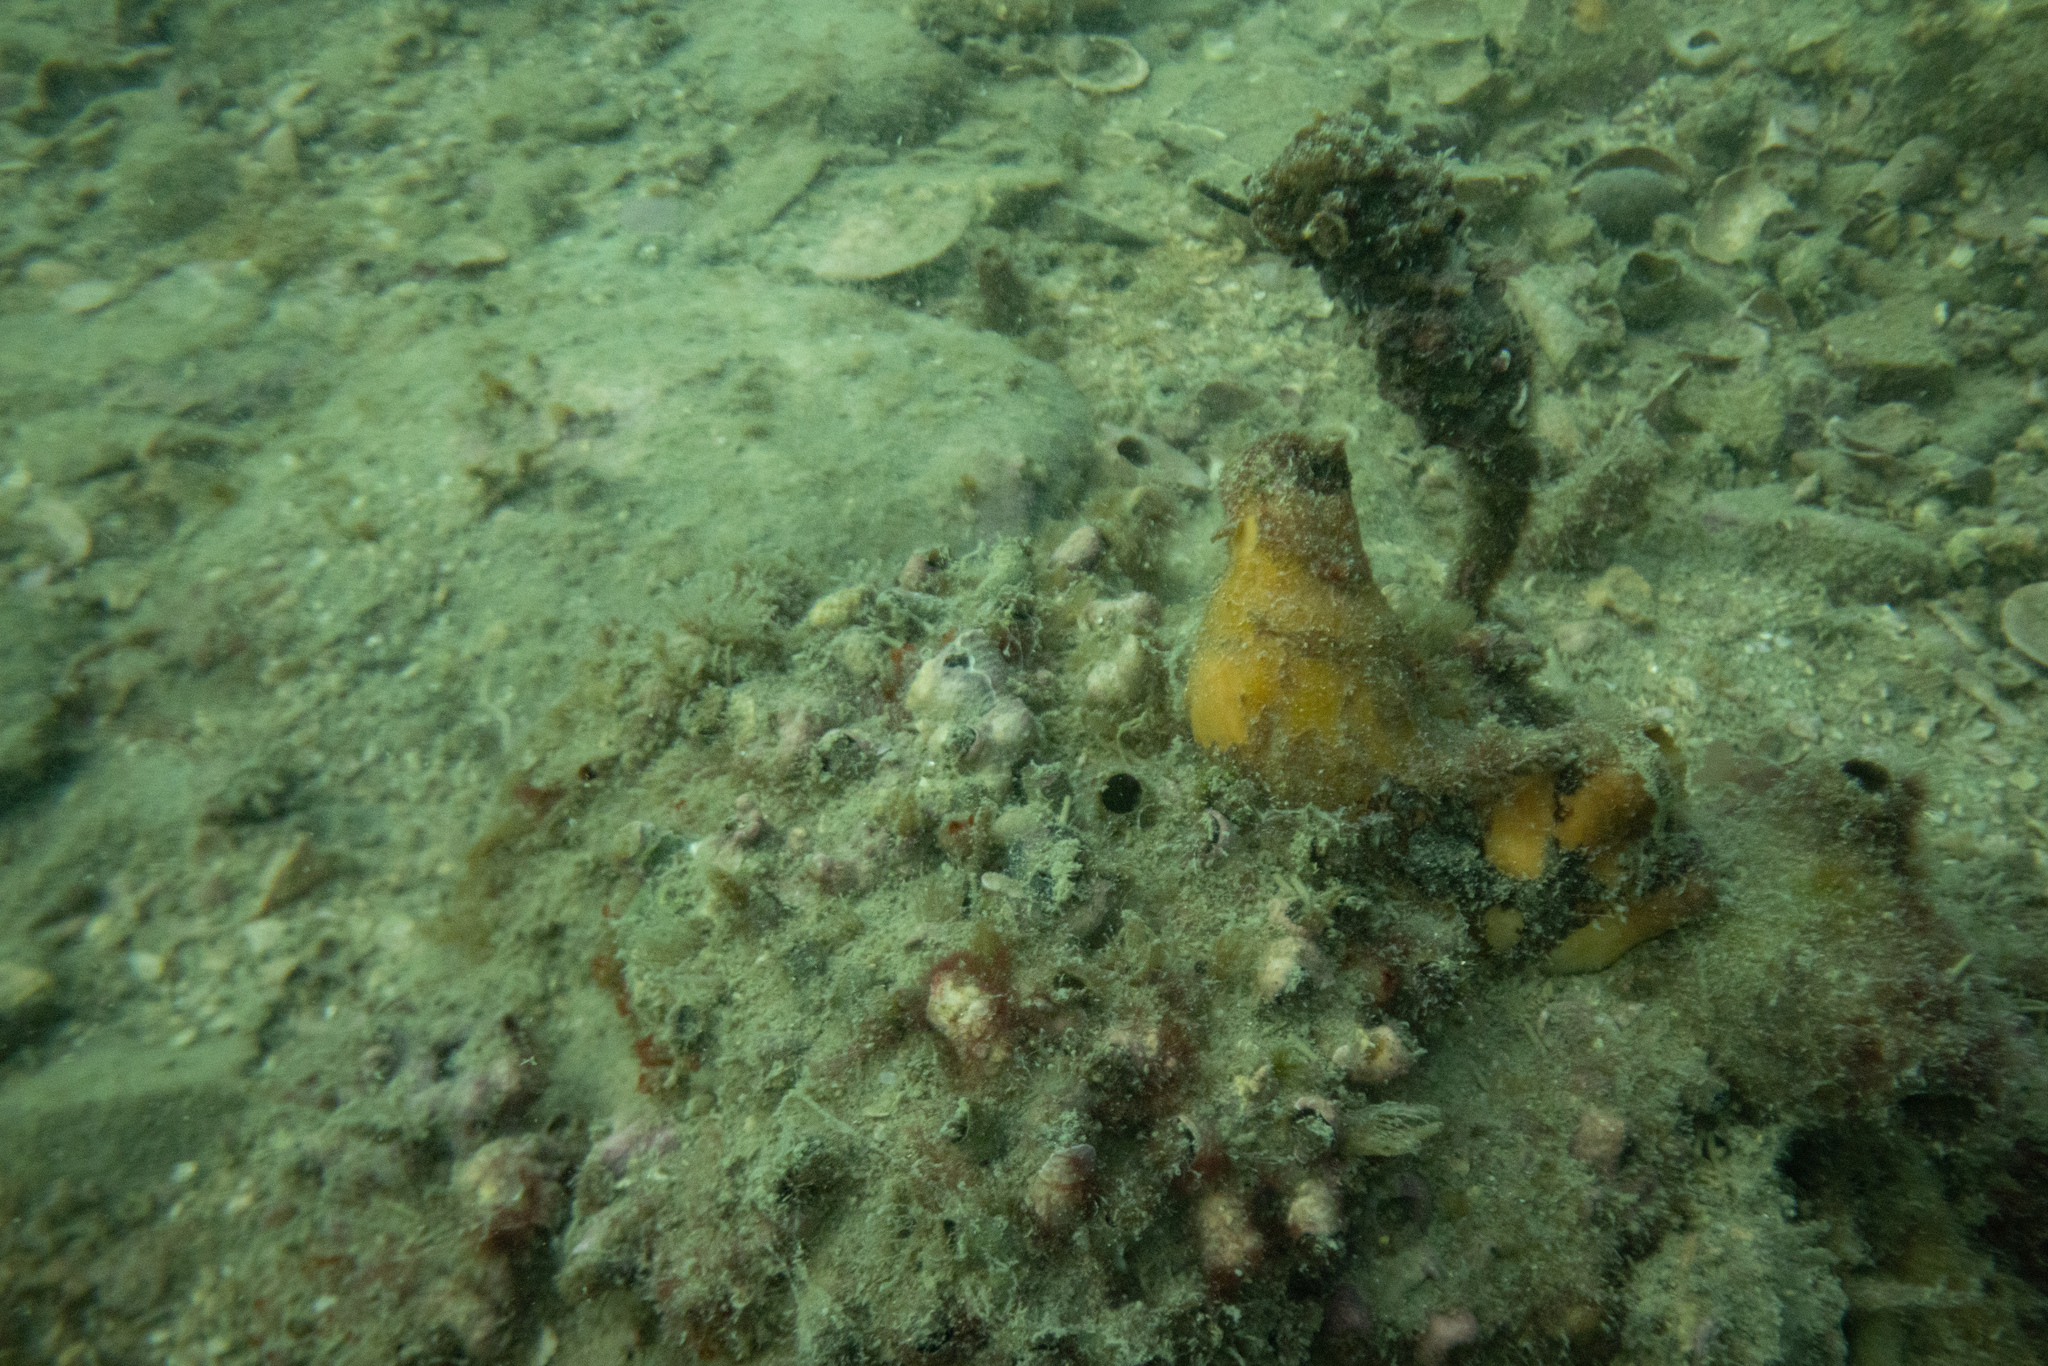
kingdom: Animalia
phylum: Chordata
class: Ascidiacea
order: Stolidobranchia
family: Styelidae
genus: Styela
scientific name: Styela clava
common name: Leathery sea squirt
